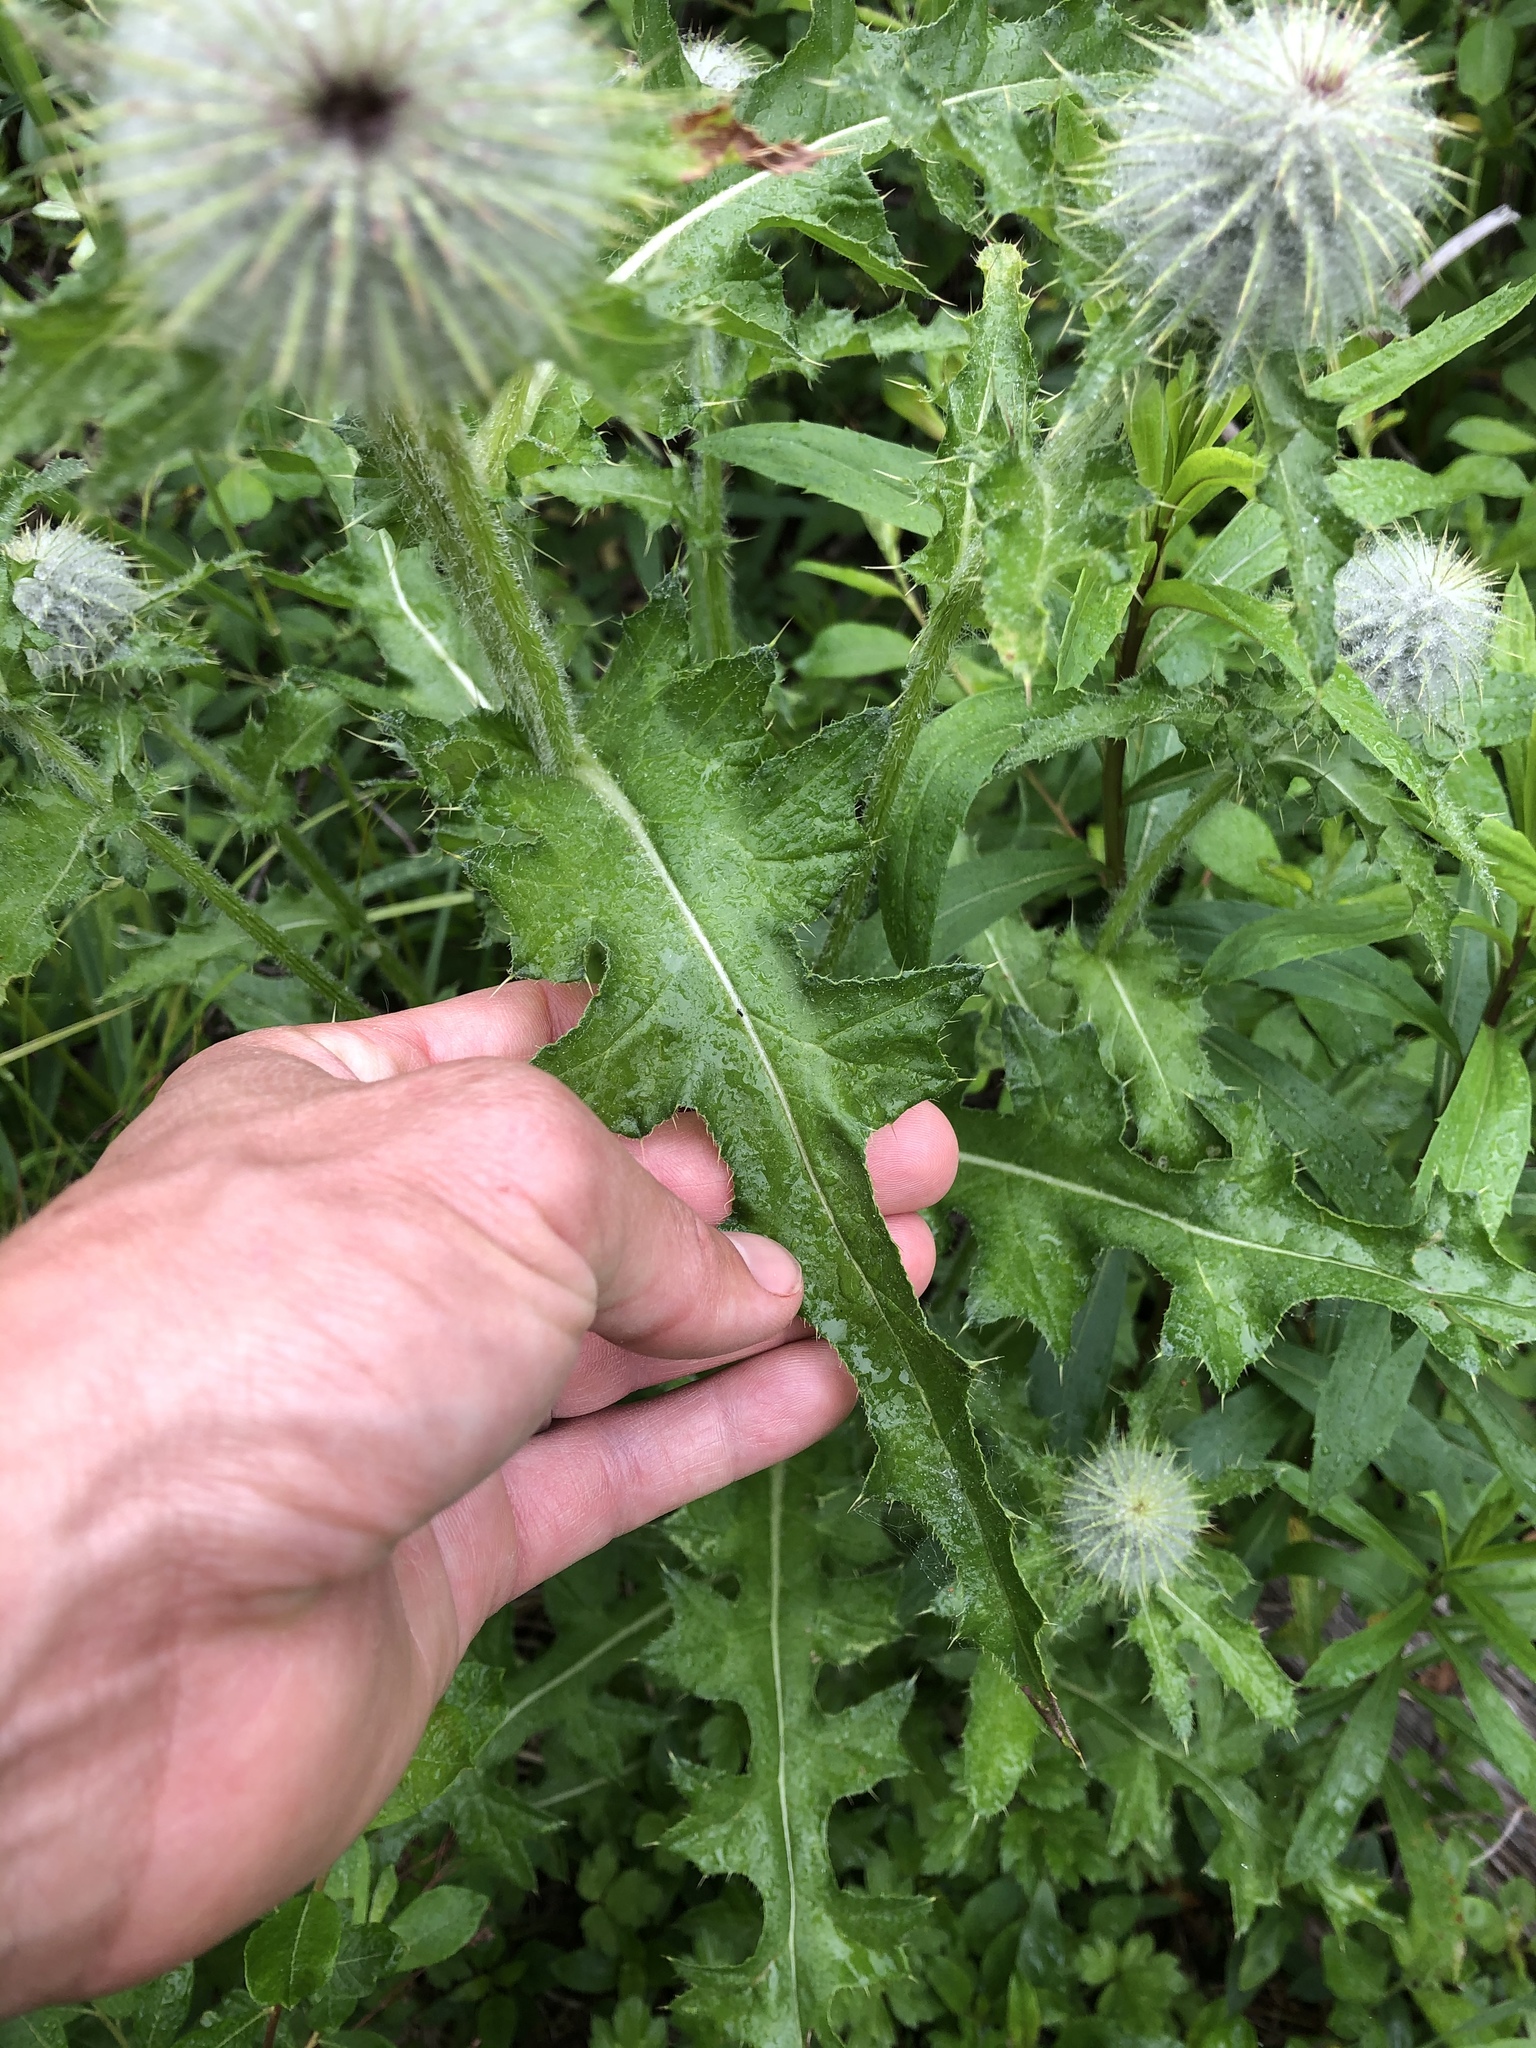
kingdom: Plantae
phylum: Tracheophyta
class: Magnoliopsida
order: Asterales
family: Asteraceae
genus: Cirsium
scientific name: Cirsium edule
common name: Indian thistle
